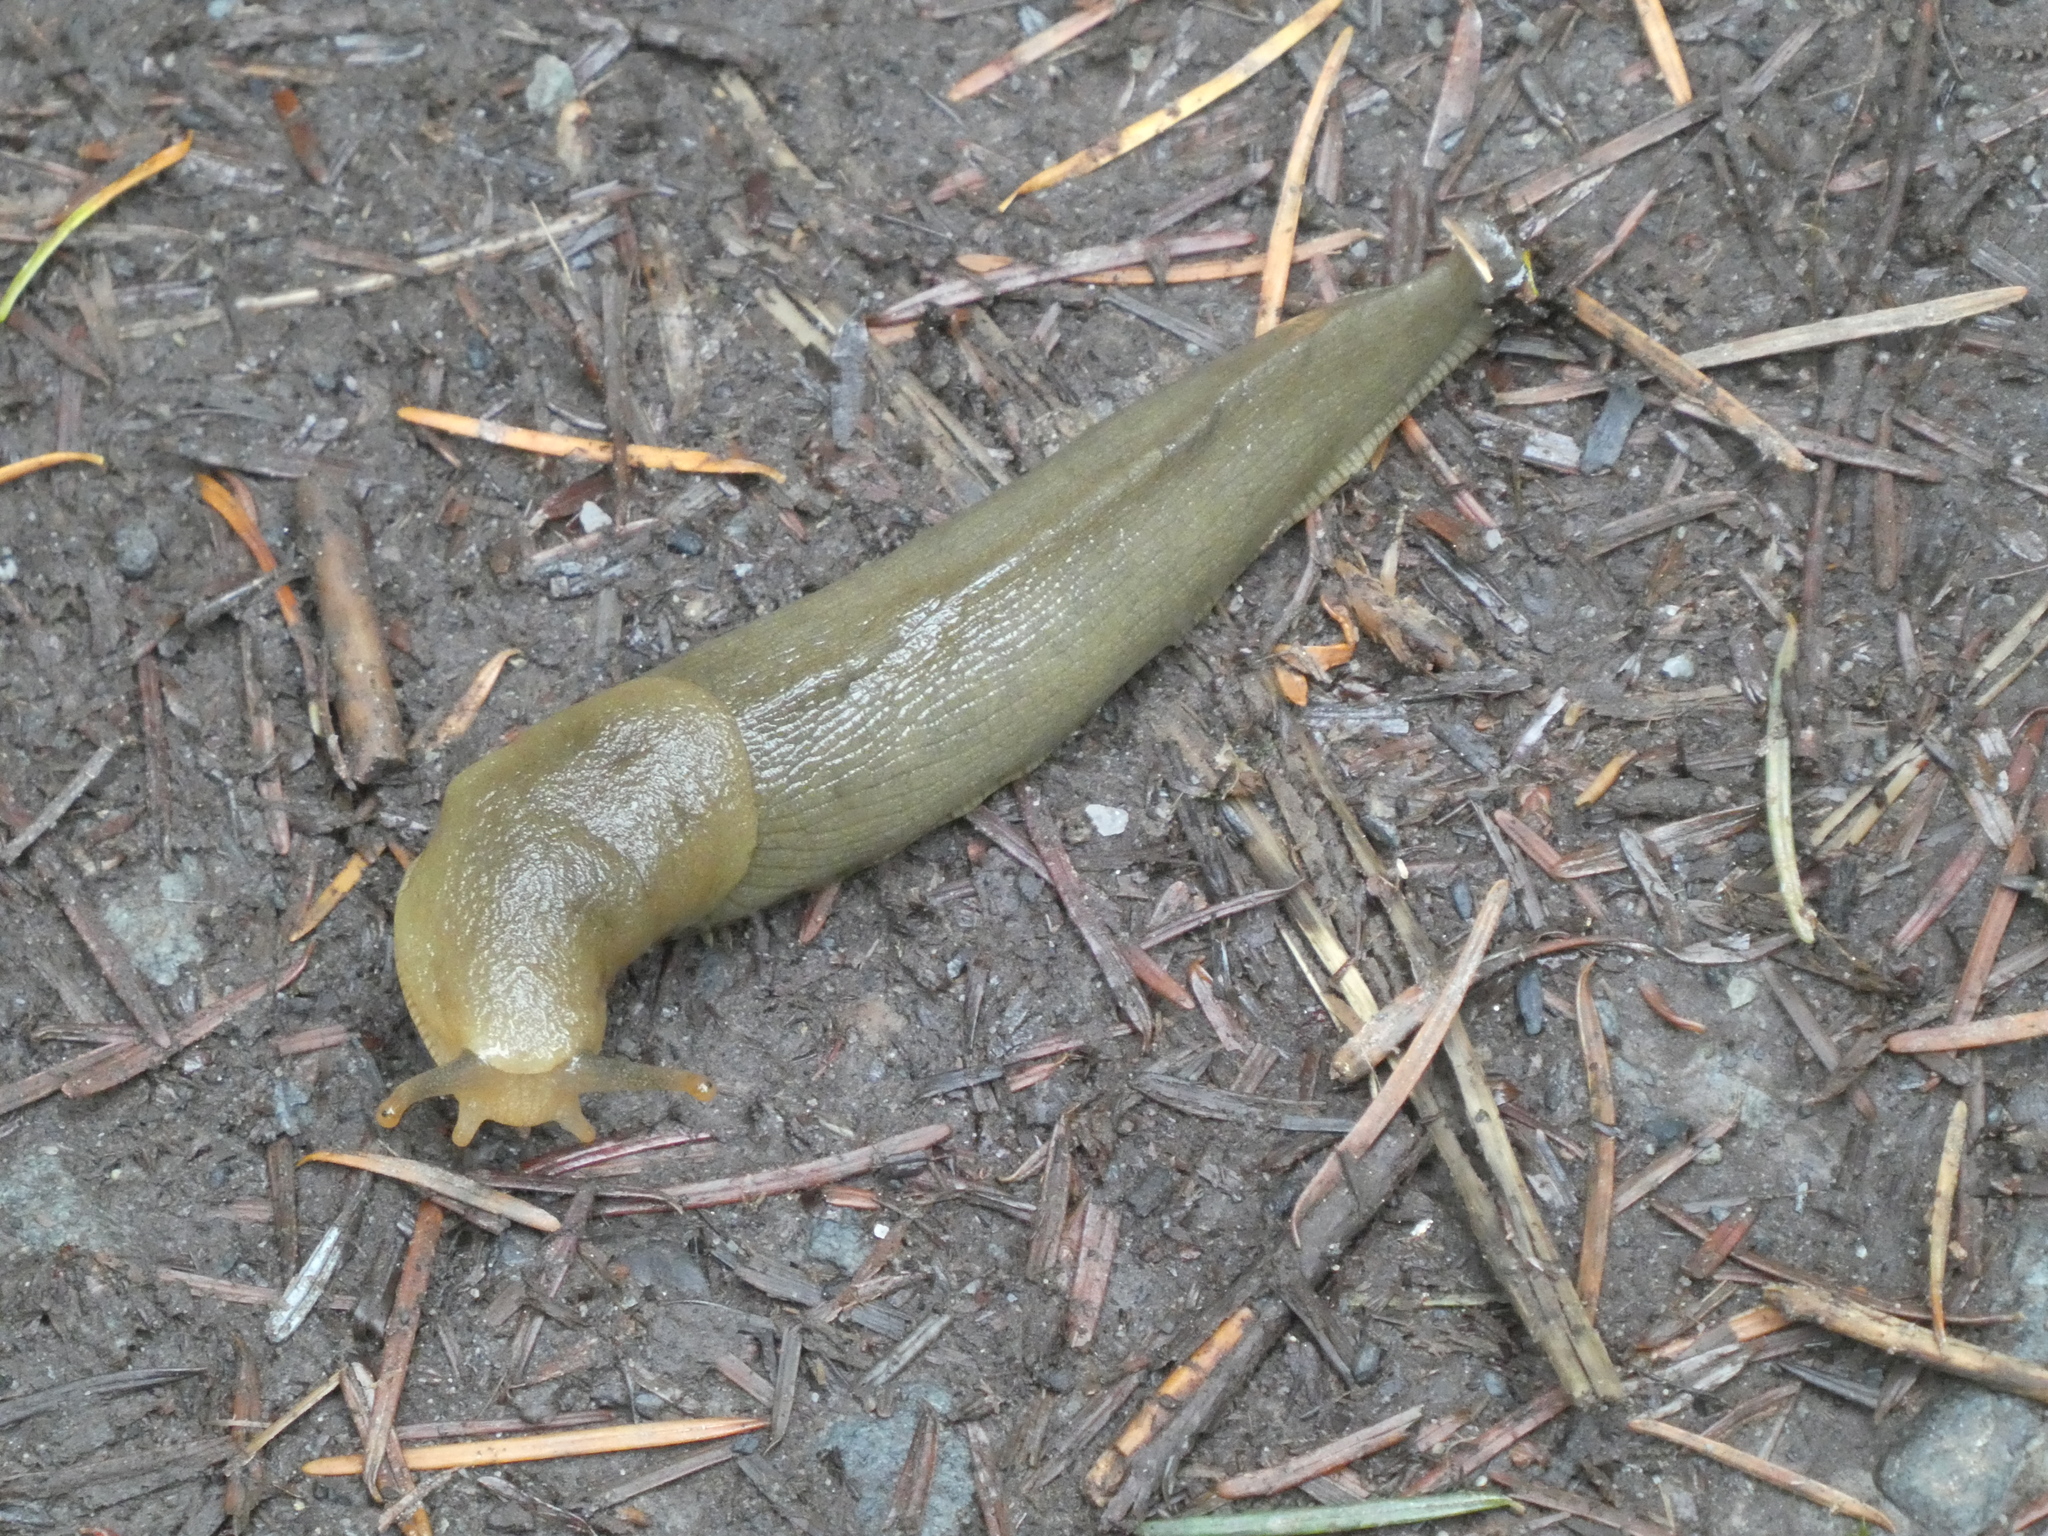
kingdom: Animalia
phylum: Mollusca
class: Gastropoda
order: Stylommatophora
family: Ariolimacidae
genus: Ariolimax
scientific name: Ariolimax columbianus
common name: Pacific banana slug
